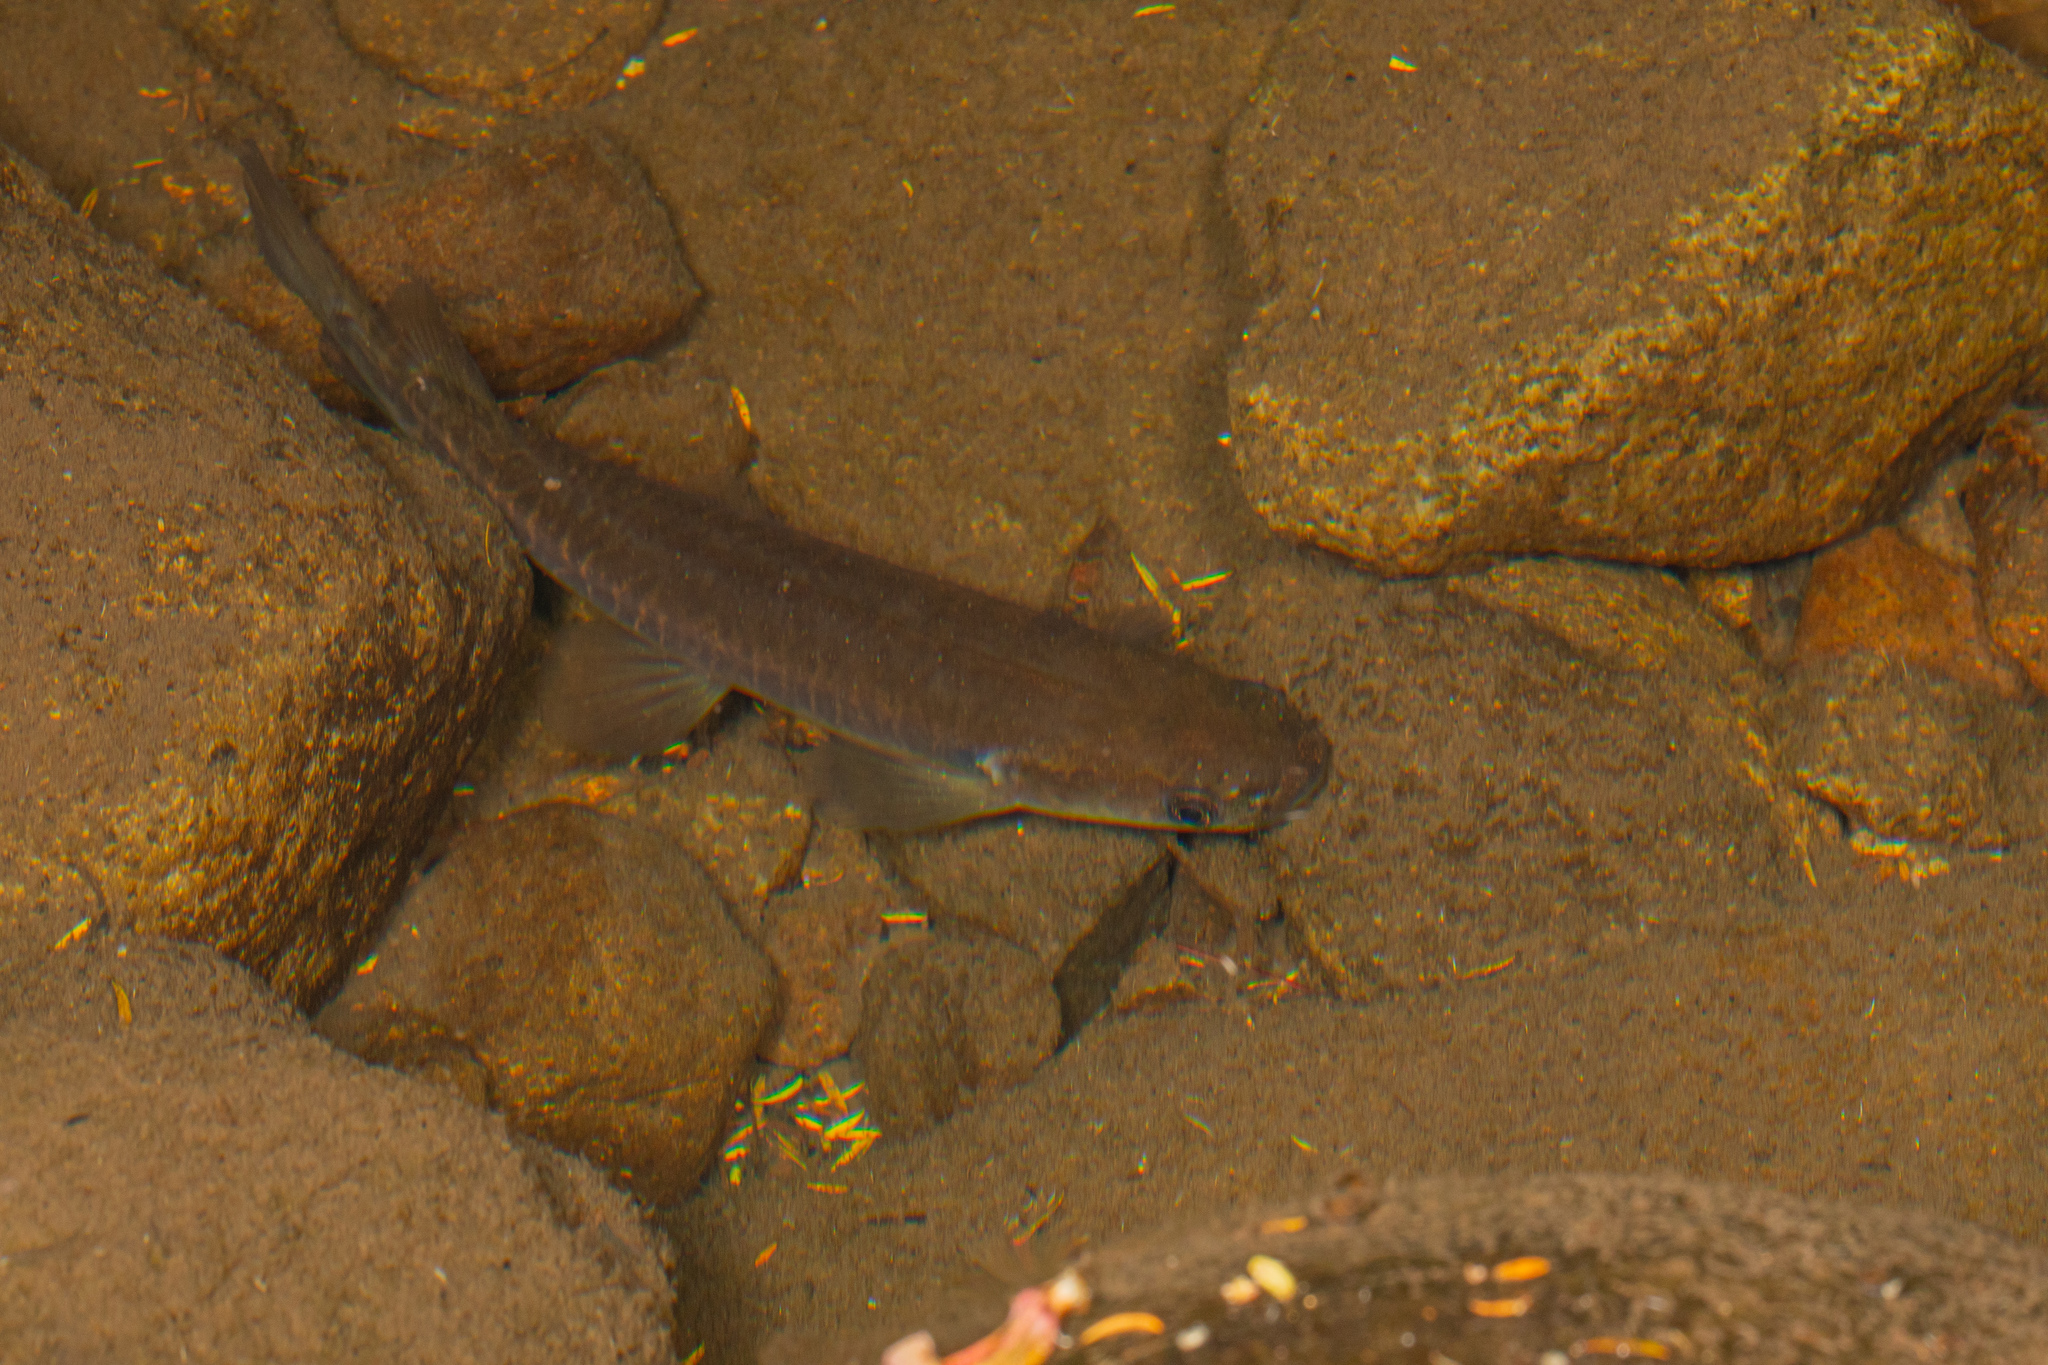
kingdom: Animalia
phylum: Chordata
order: Osmeriformes
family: Galaxiidae
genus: Galaxias
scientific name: Galaxias fasciatus
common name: Banded kokopu
